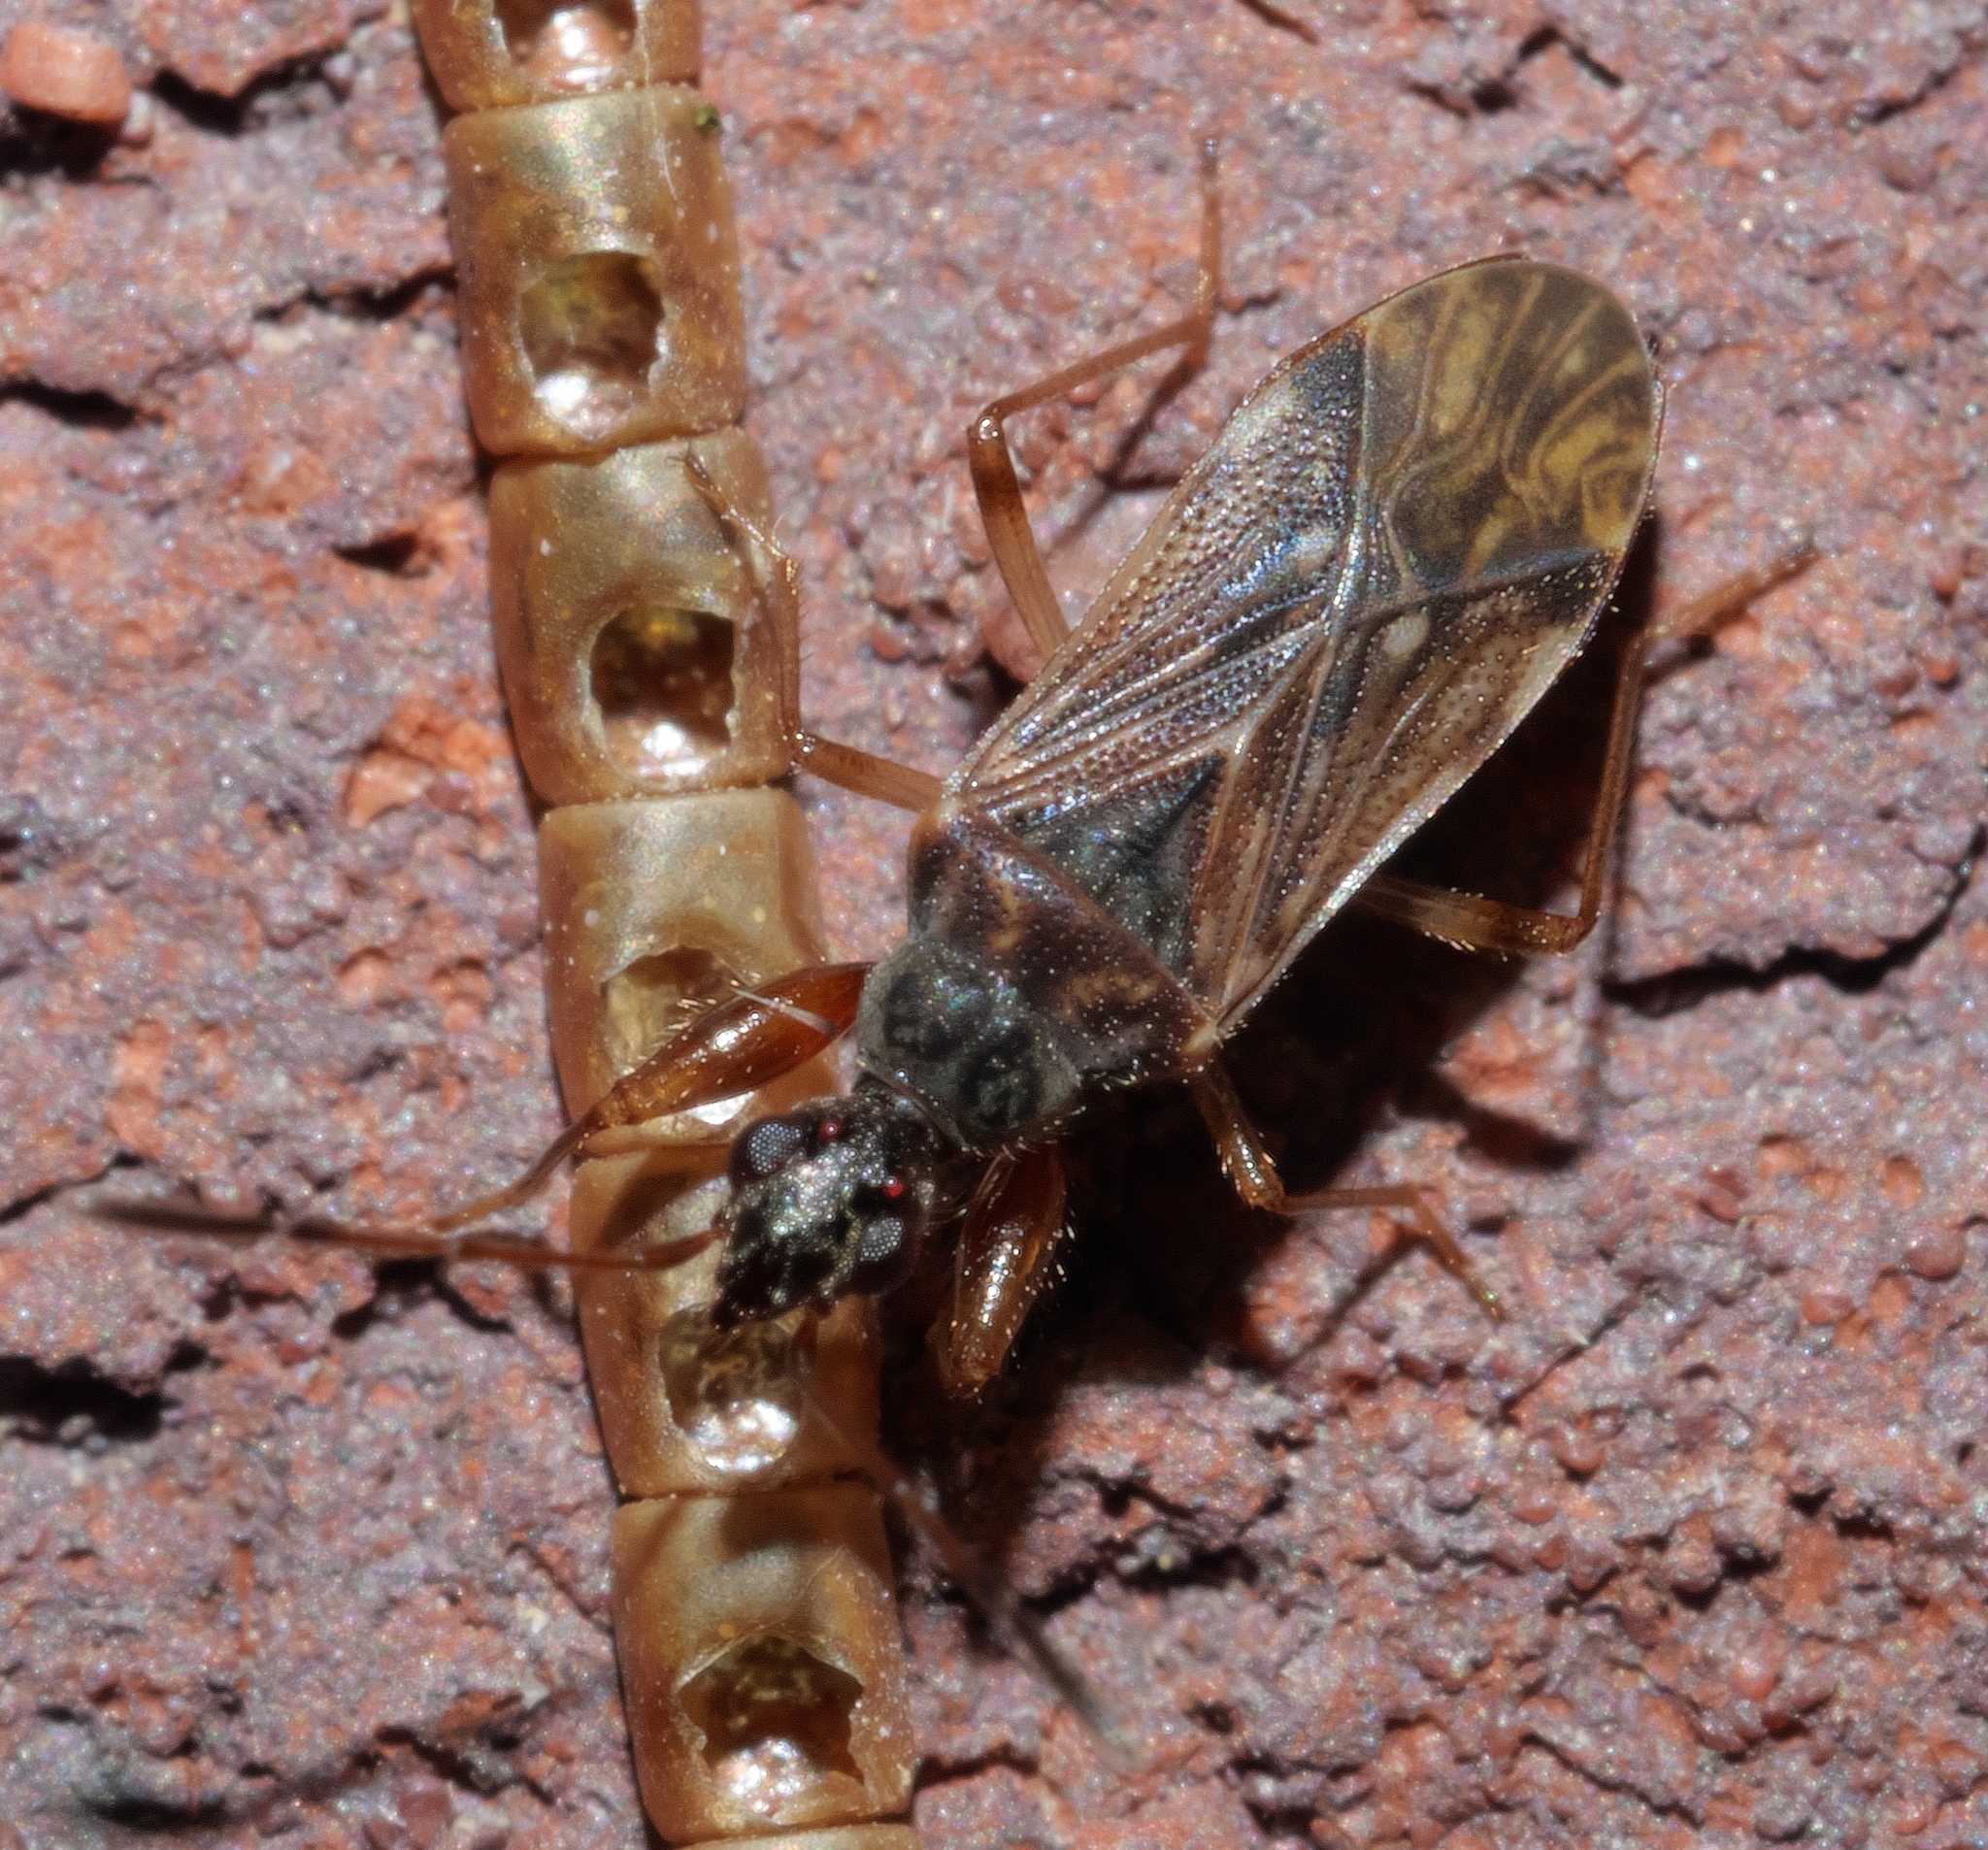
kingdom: Animalia
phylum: Arthropoda
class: Insecta
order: Hemiptera
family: Rhyparochromidae
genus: Heraeus
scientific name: Heraeus plebejus
